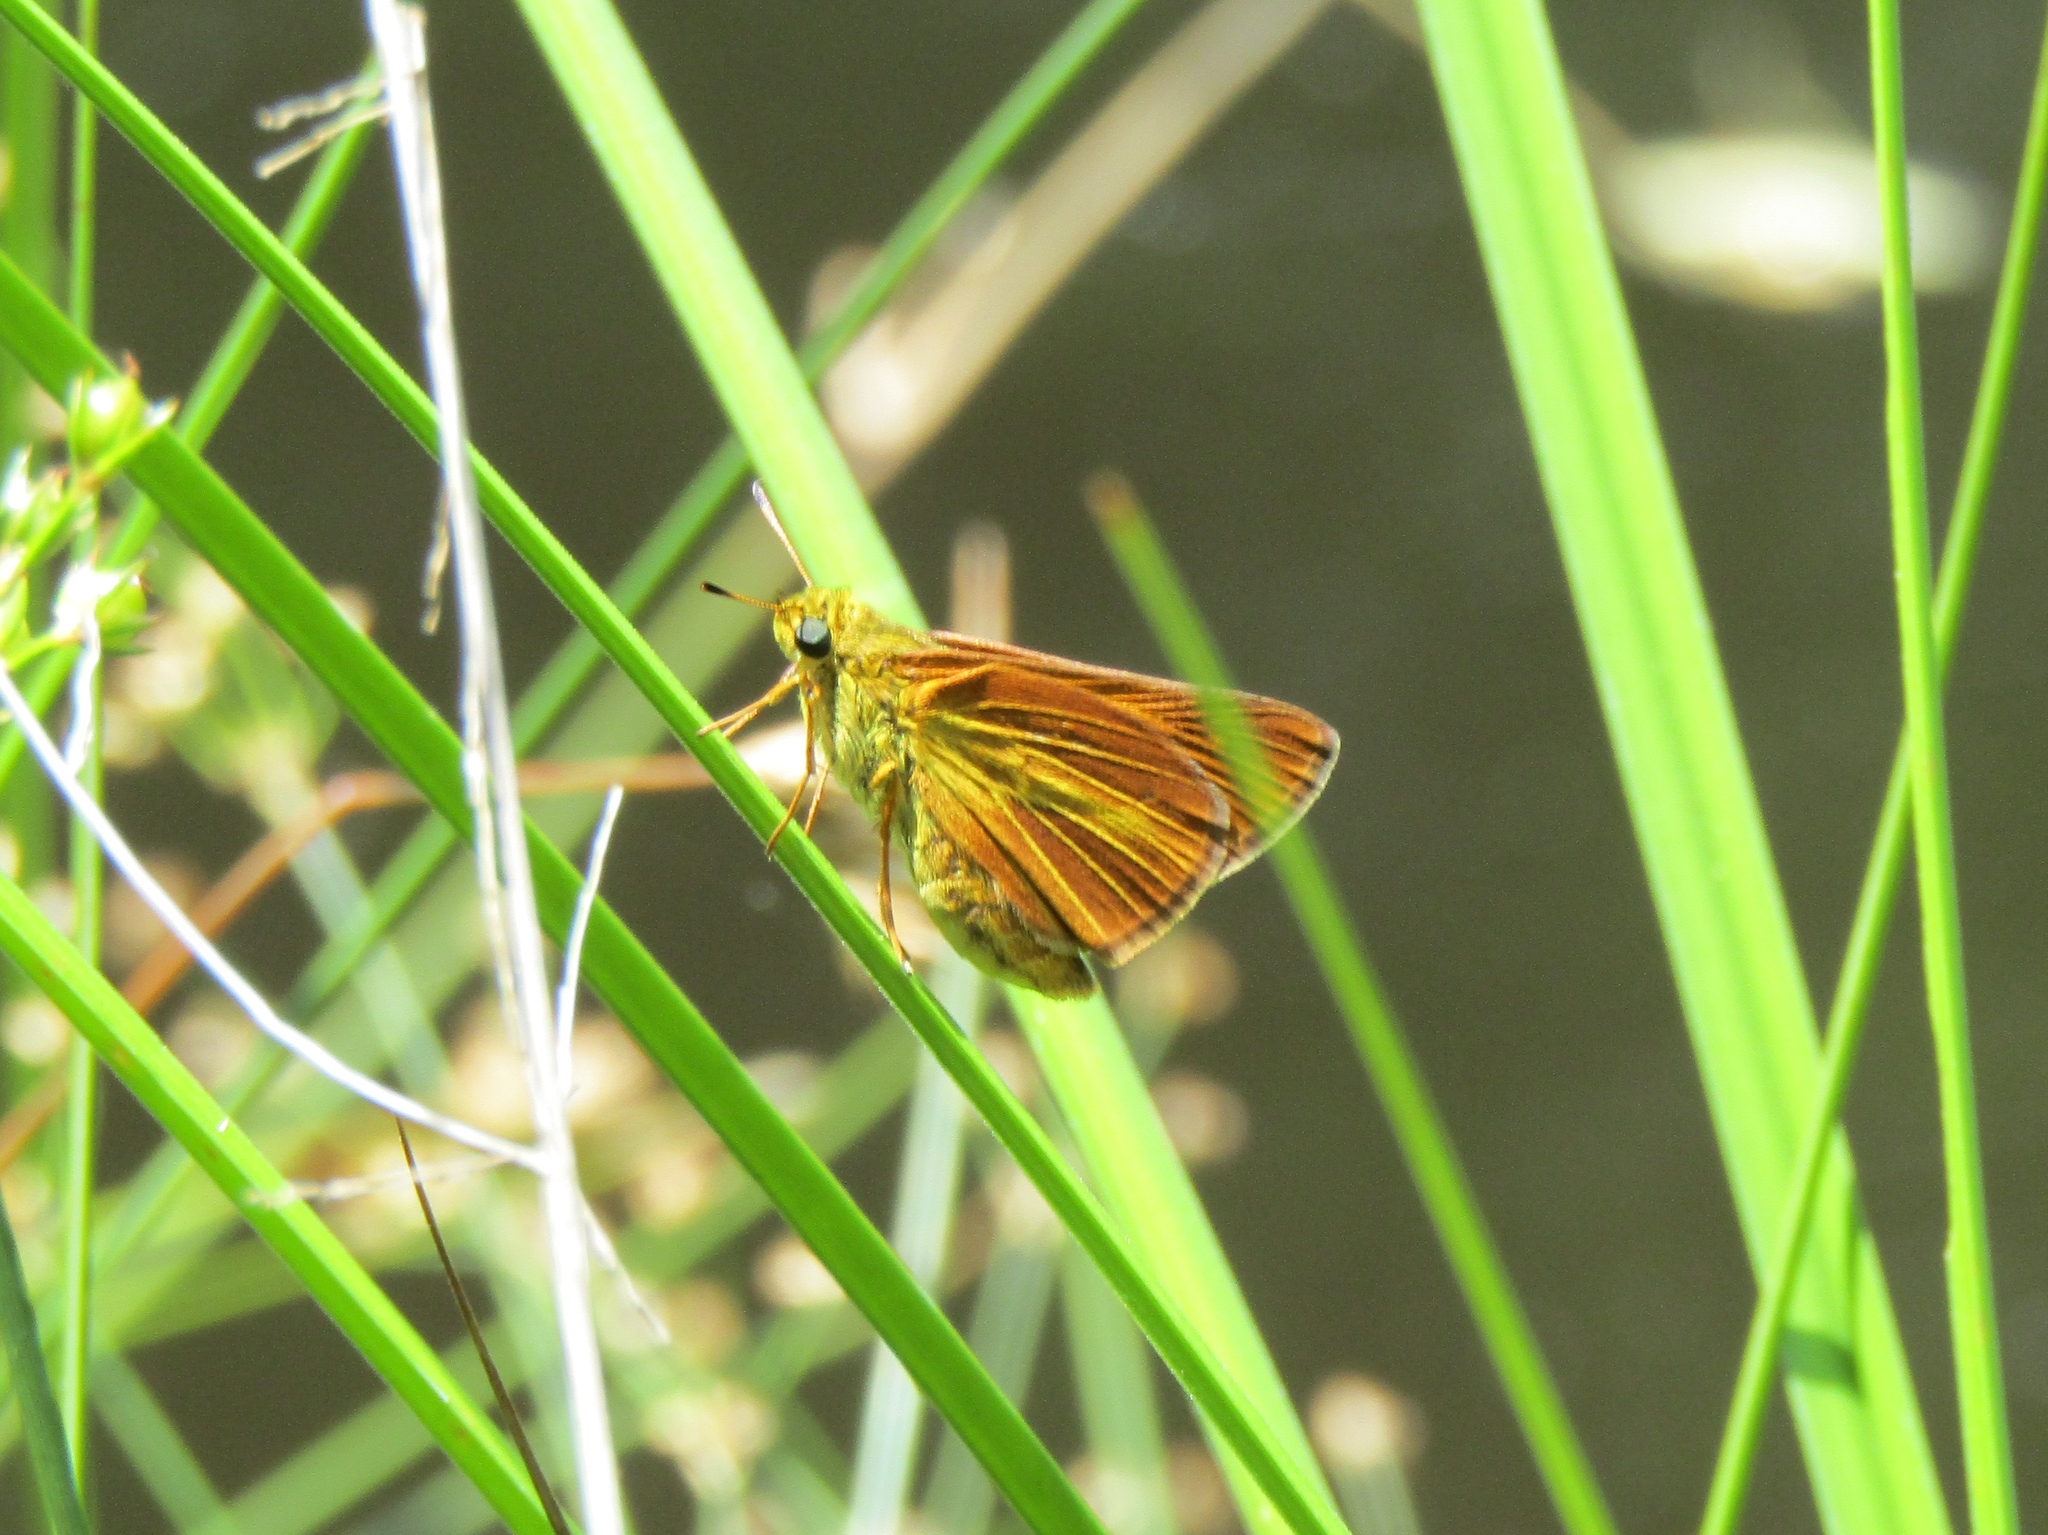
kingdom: Animalia
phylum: Arthropoda
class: Insecta
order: Lepidoptera
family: Hesperiidae
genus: Euphyes
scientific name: Euphyes dion
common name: Dion skipper
